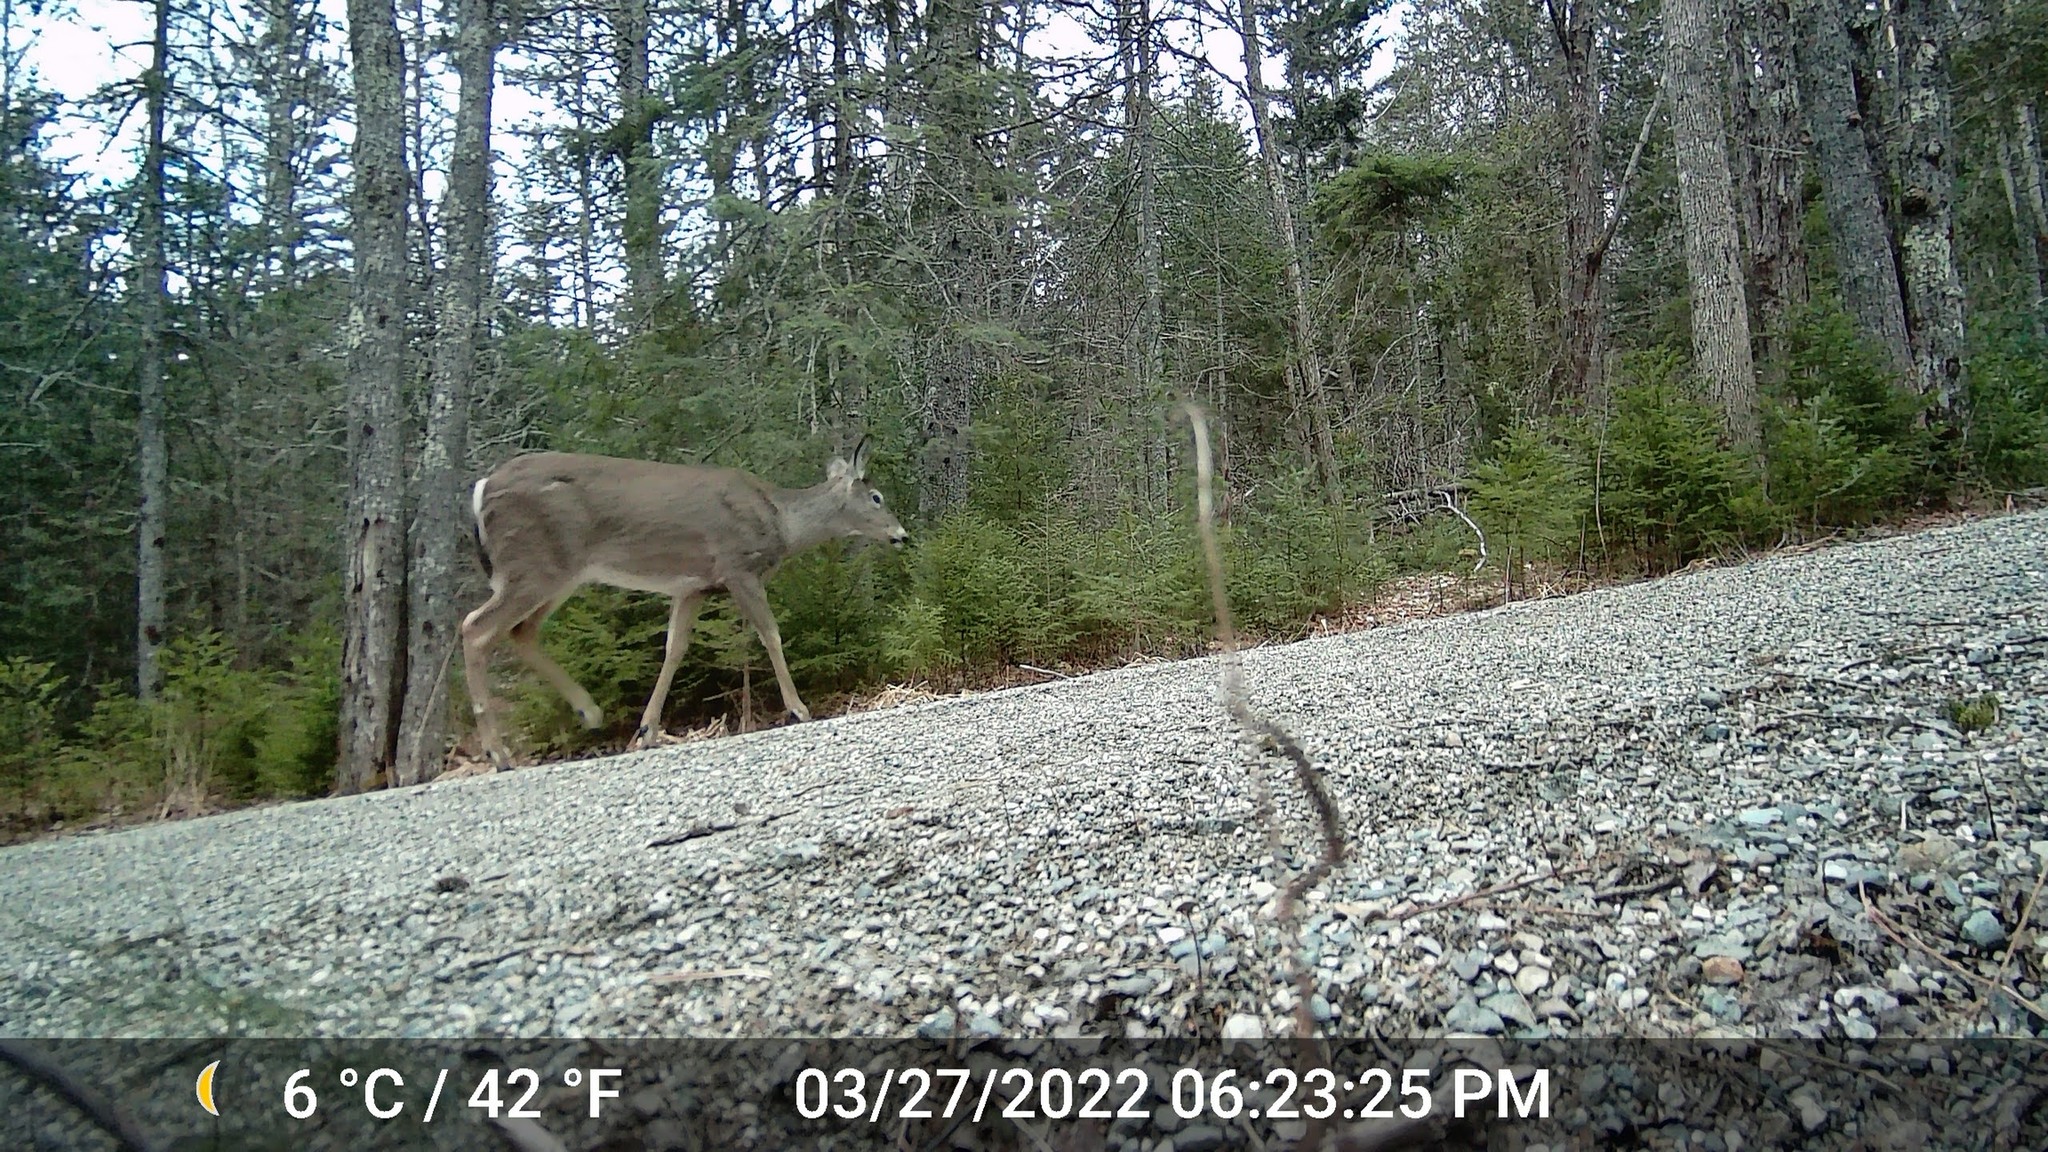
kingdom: Animalia
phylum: Chordata
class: Mammalia
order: Artiodactyla
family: Cervidae
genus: Odocoileus
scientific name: Odocoileus virginianus
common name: White-tailed deer
